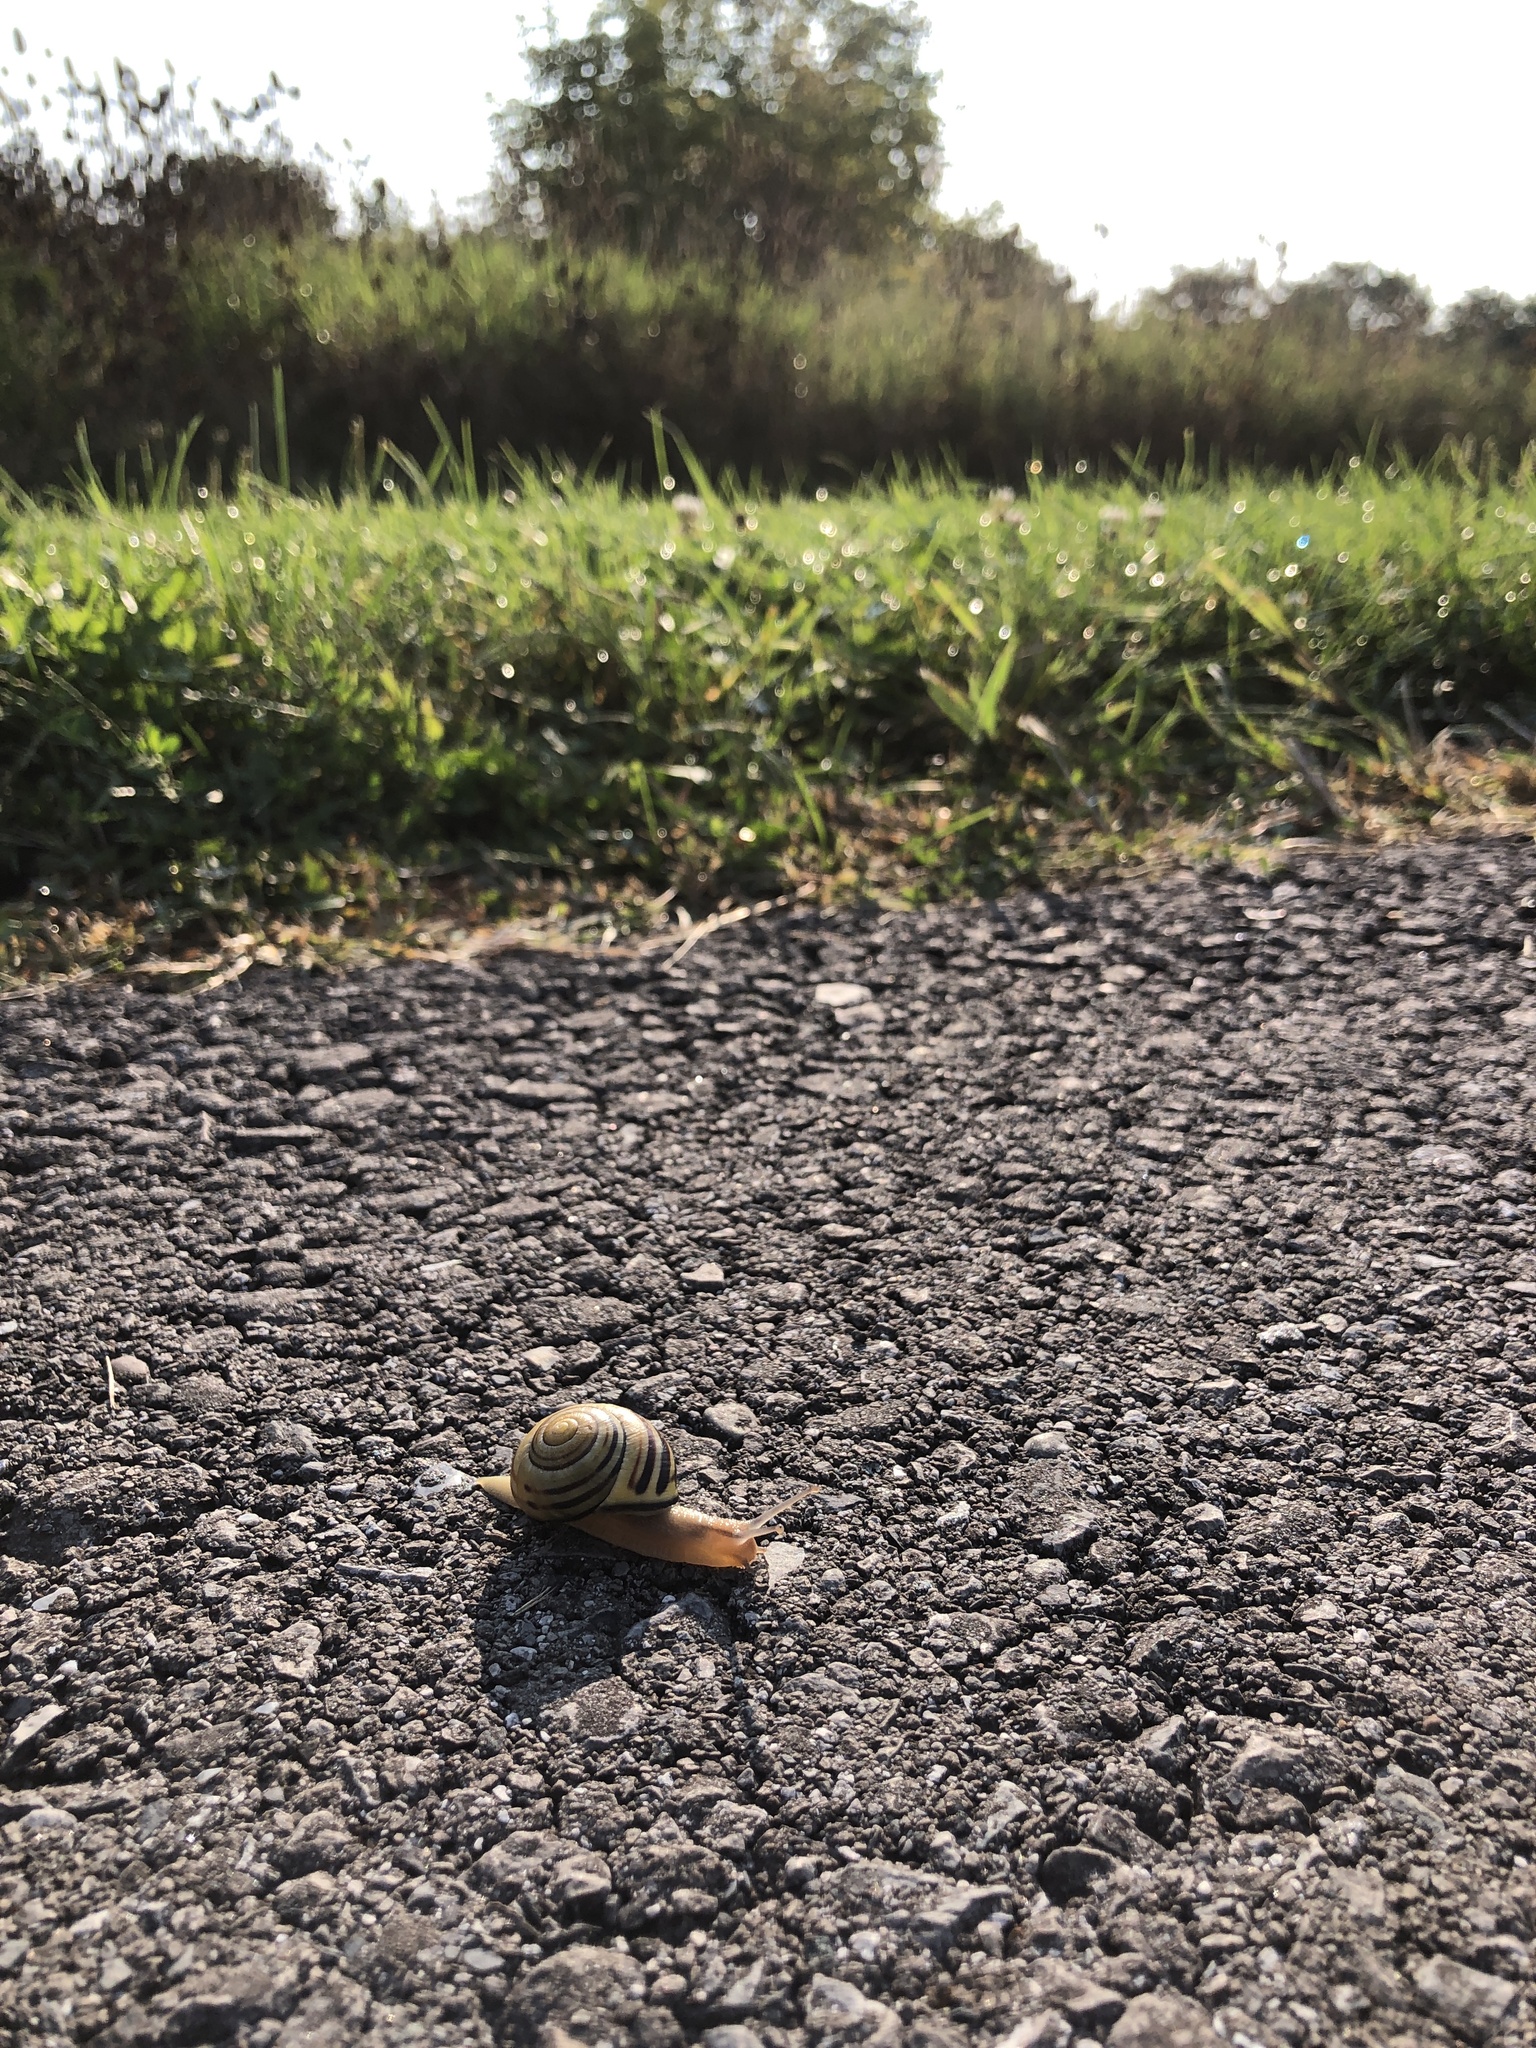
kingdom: Animalia
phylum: Mollusca
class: Gastropoda
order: Stylommatophora
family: Helicidae
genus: Cepaea
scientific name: Cepaea nemoralis
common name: Grovesnail
